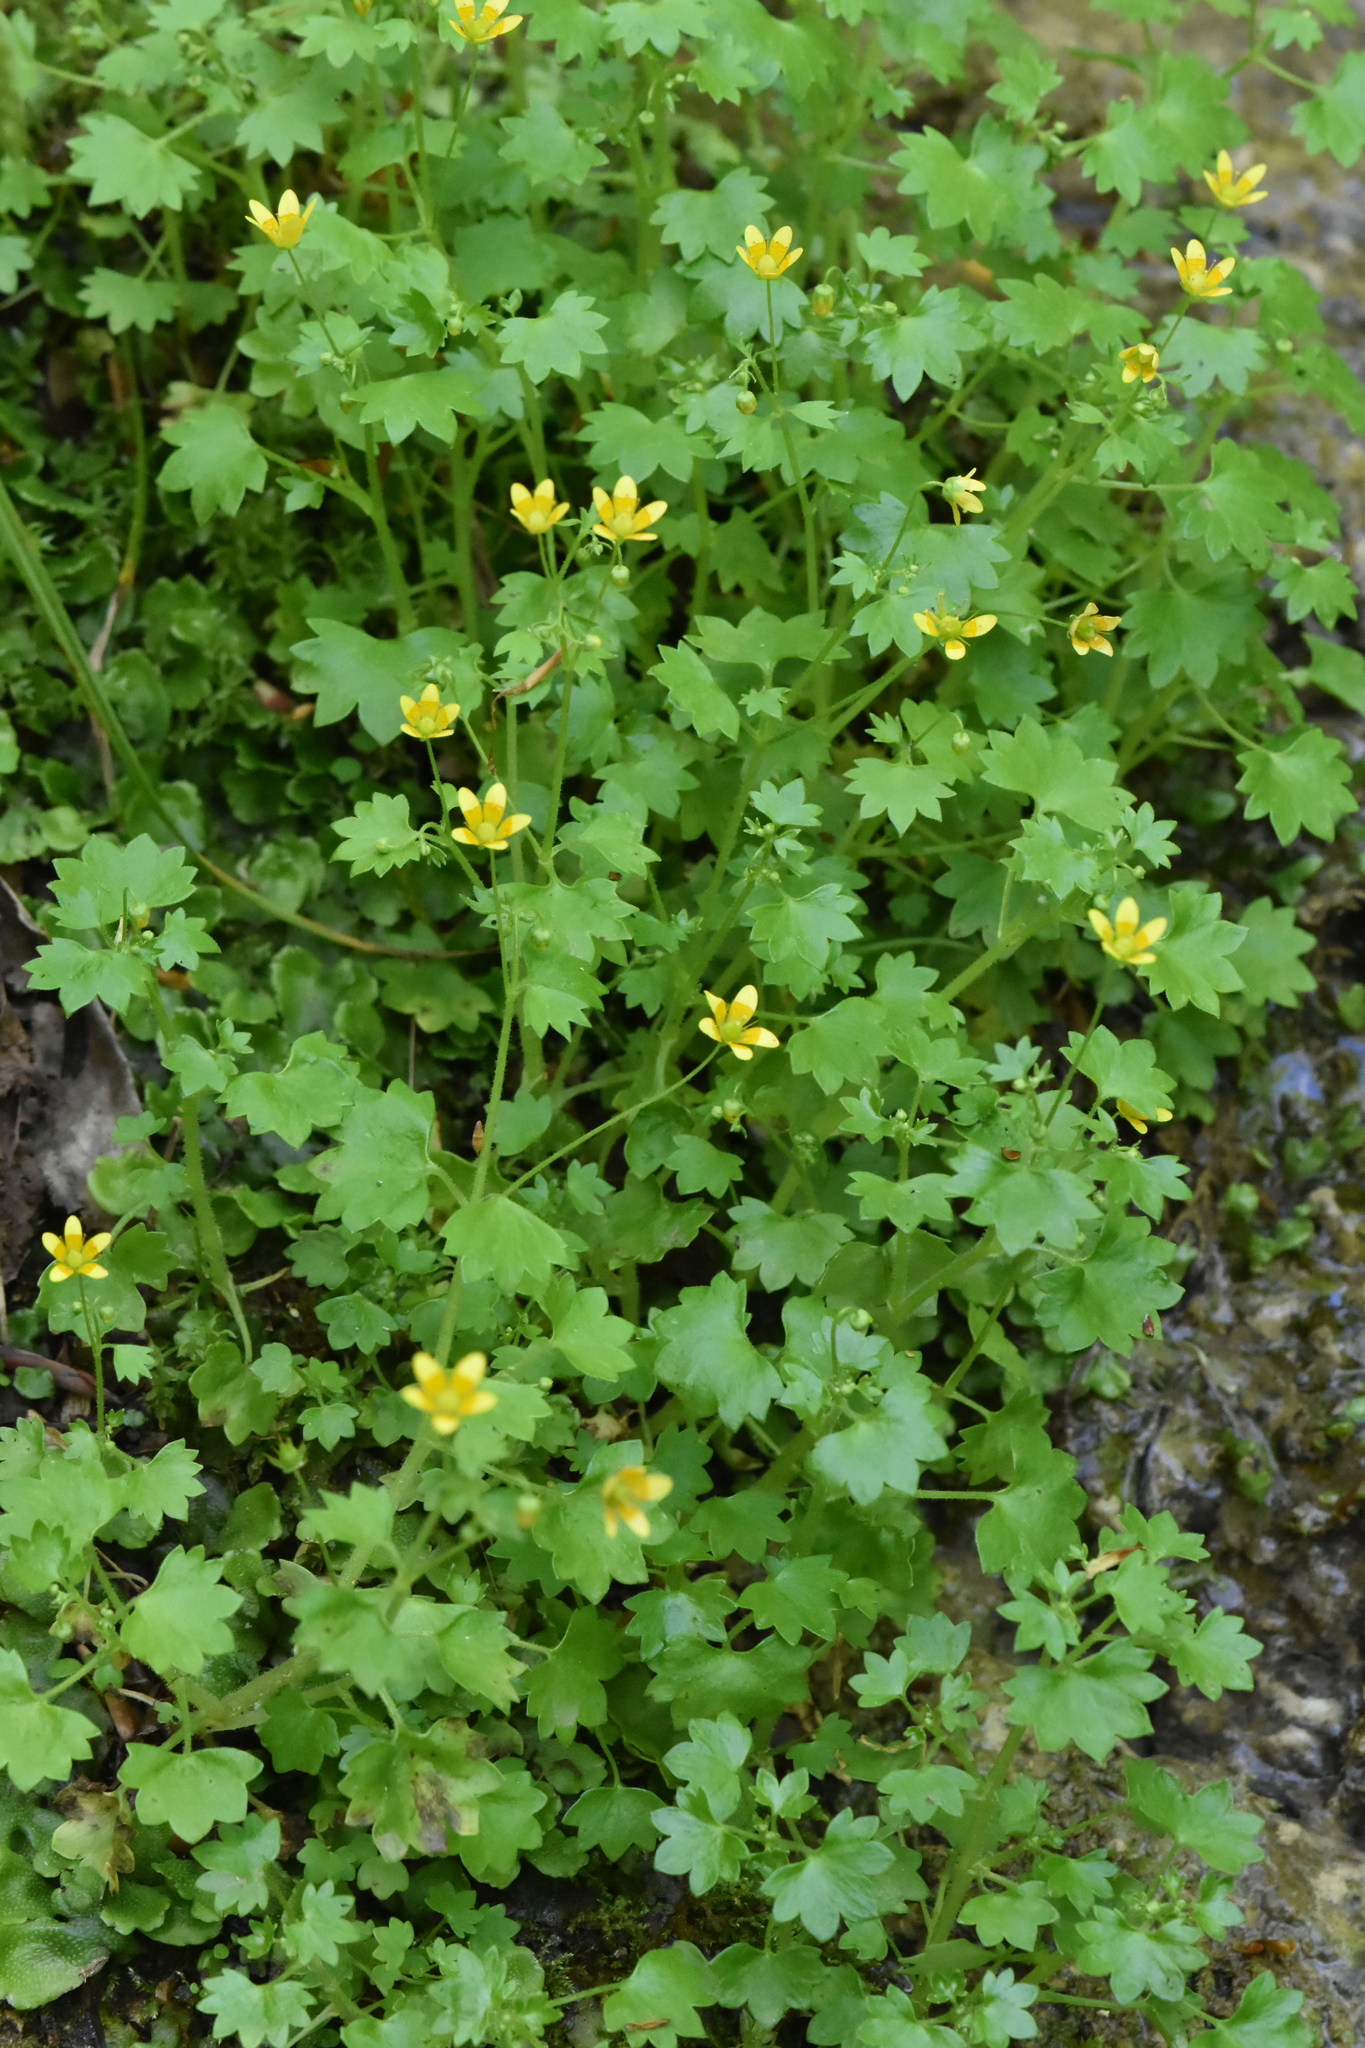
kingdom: Plantae
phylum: Tracheophyta
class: Magnoliopsida
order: Saxifragales
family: Saxifragaceae
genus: Saxifraga
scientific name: Saxifraga cymbalaria
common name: Celandine saxifrage
